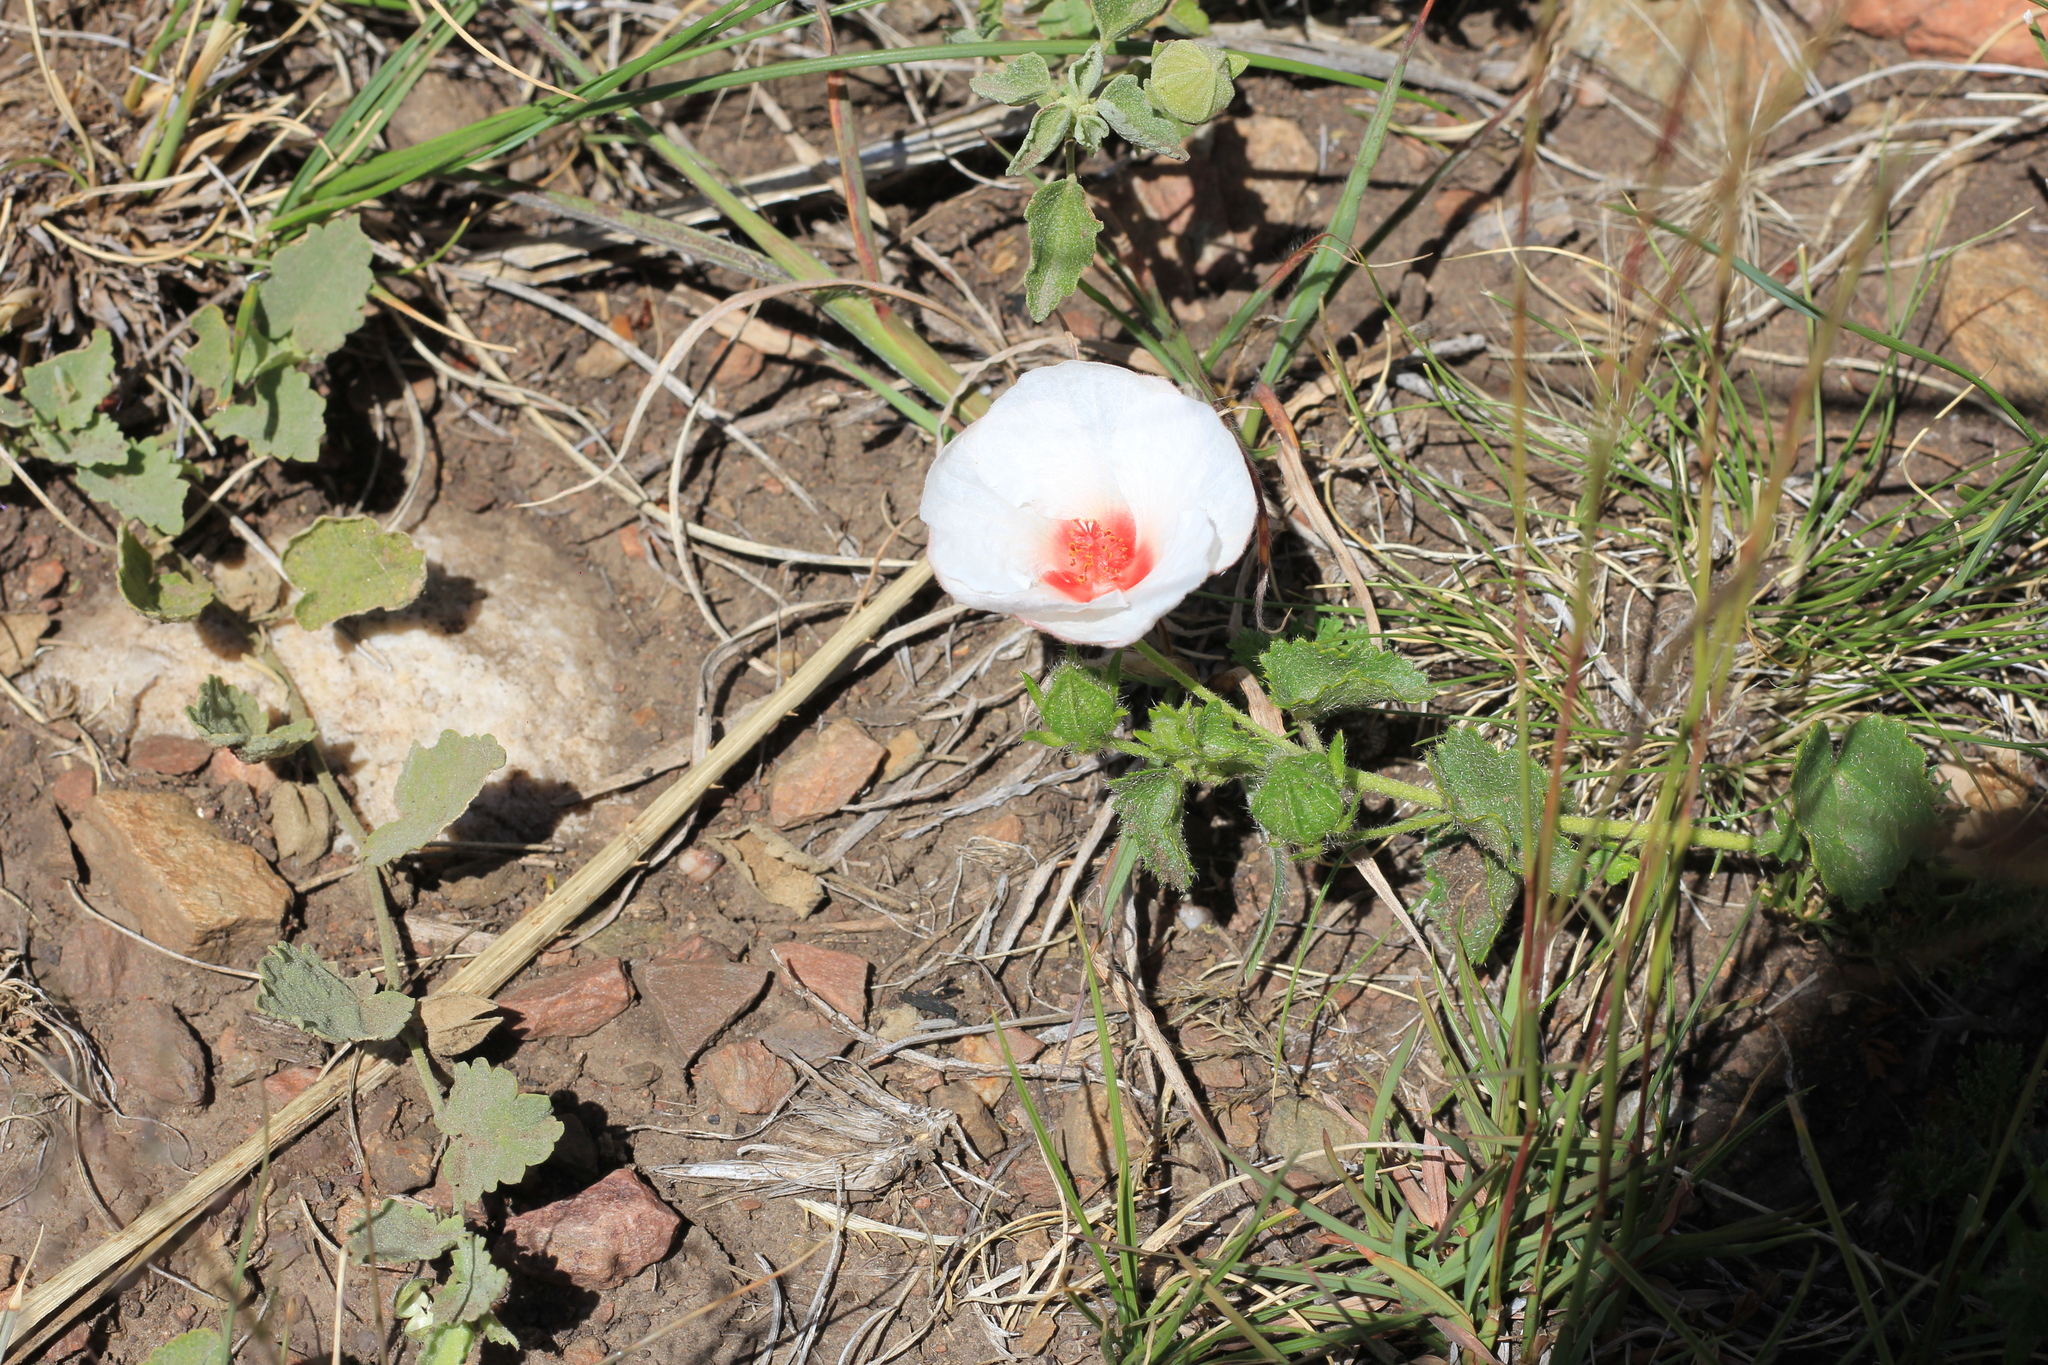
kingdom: Plantae
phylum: Tracheophyta
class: Magnoliopsida
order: Malvales
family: Malvaceae
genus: Pavonia
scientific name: Pavonia cymbalaria
